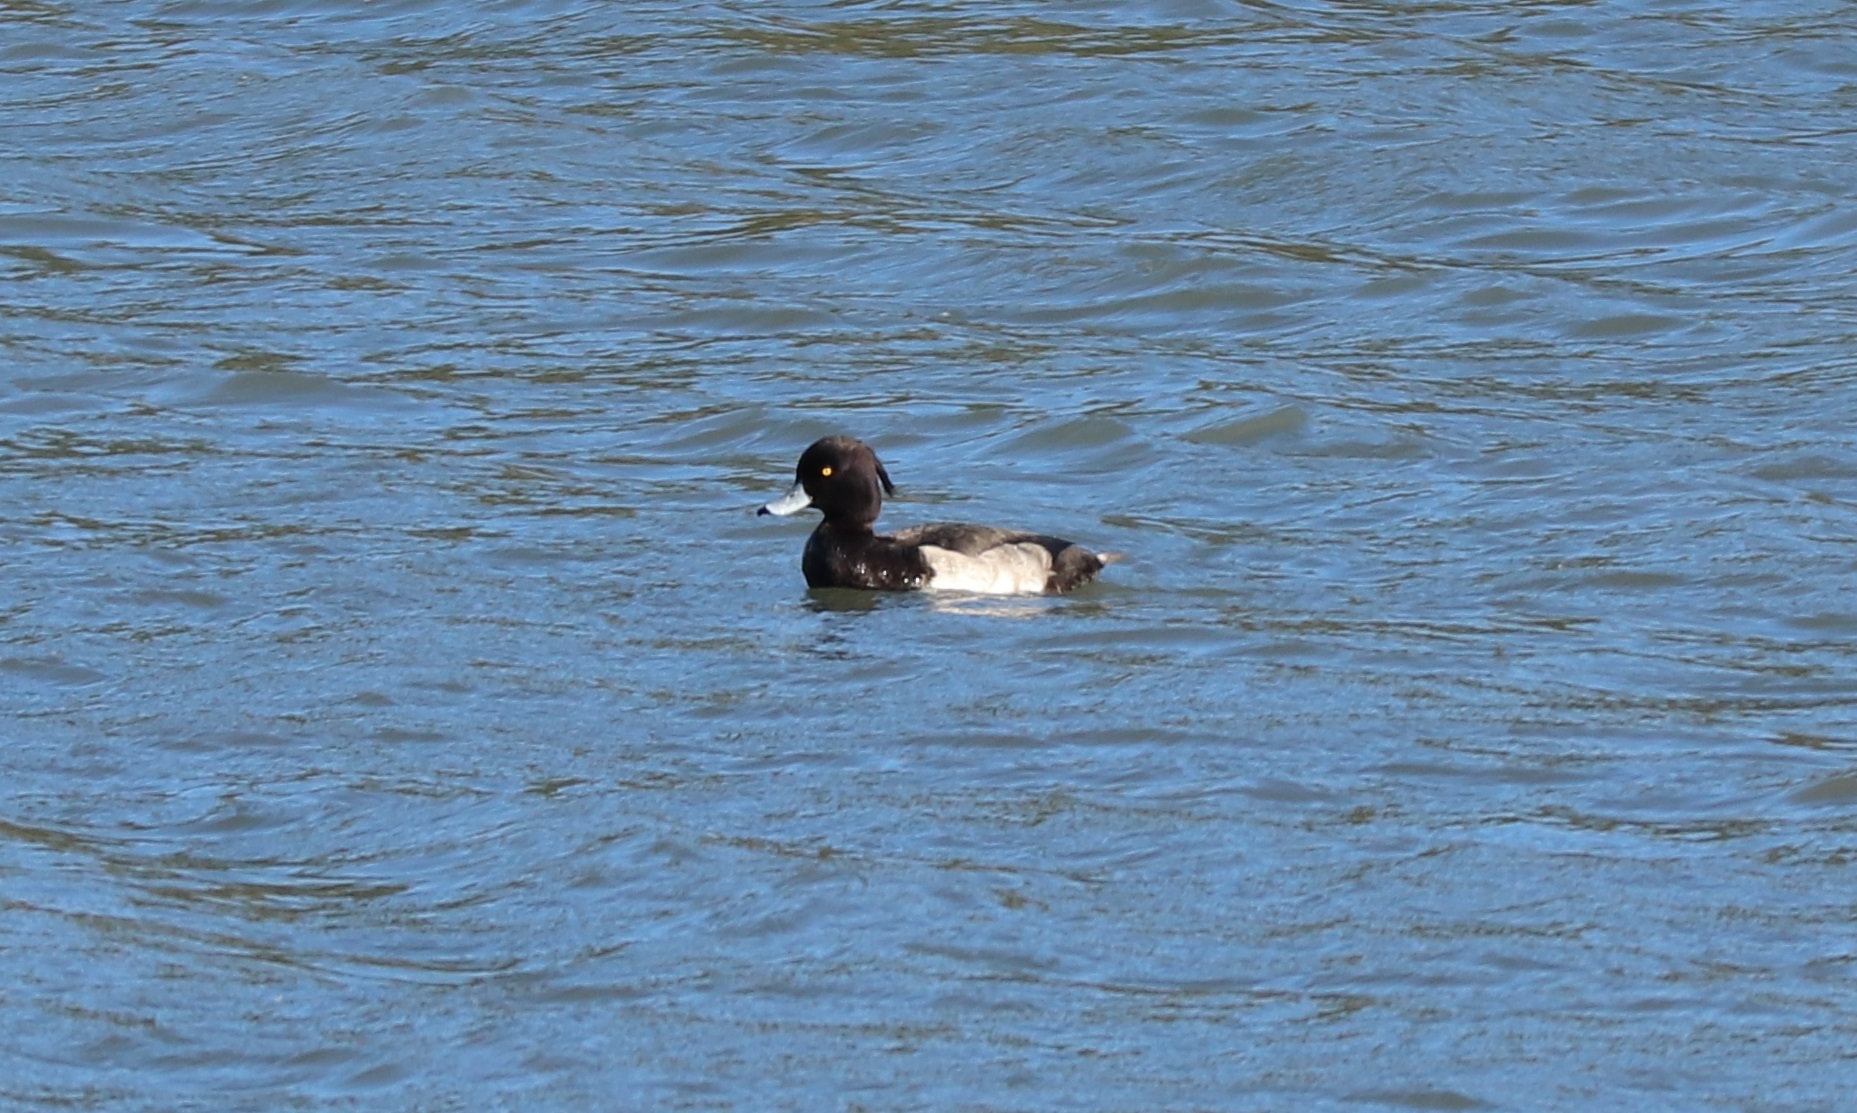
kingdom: Animalia
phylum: Chordata
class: Aves
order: Anseriformes
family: Anatidae
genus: Aythya
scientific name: Aythya fuligula
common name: Tufted duck
